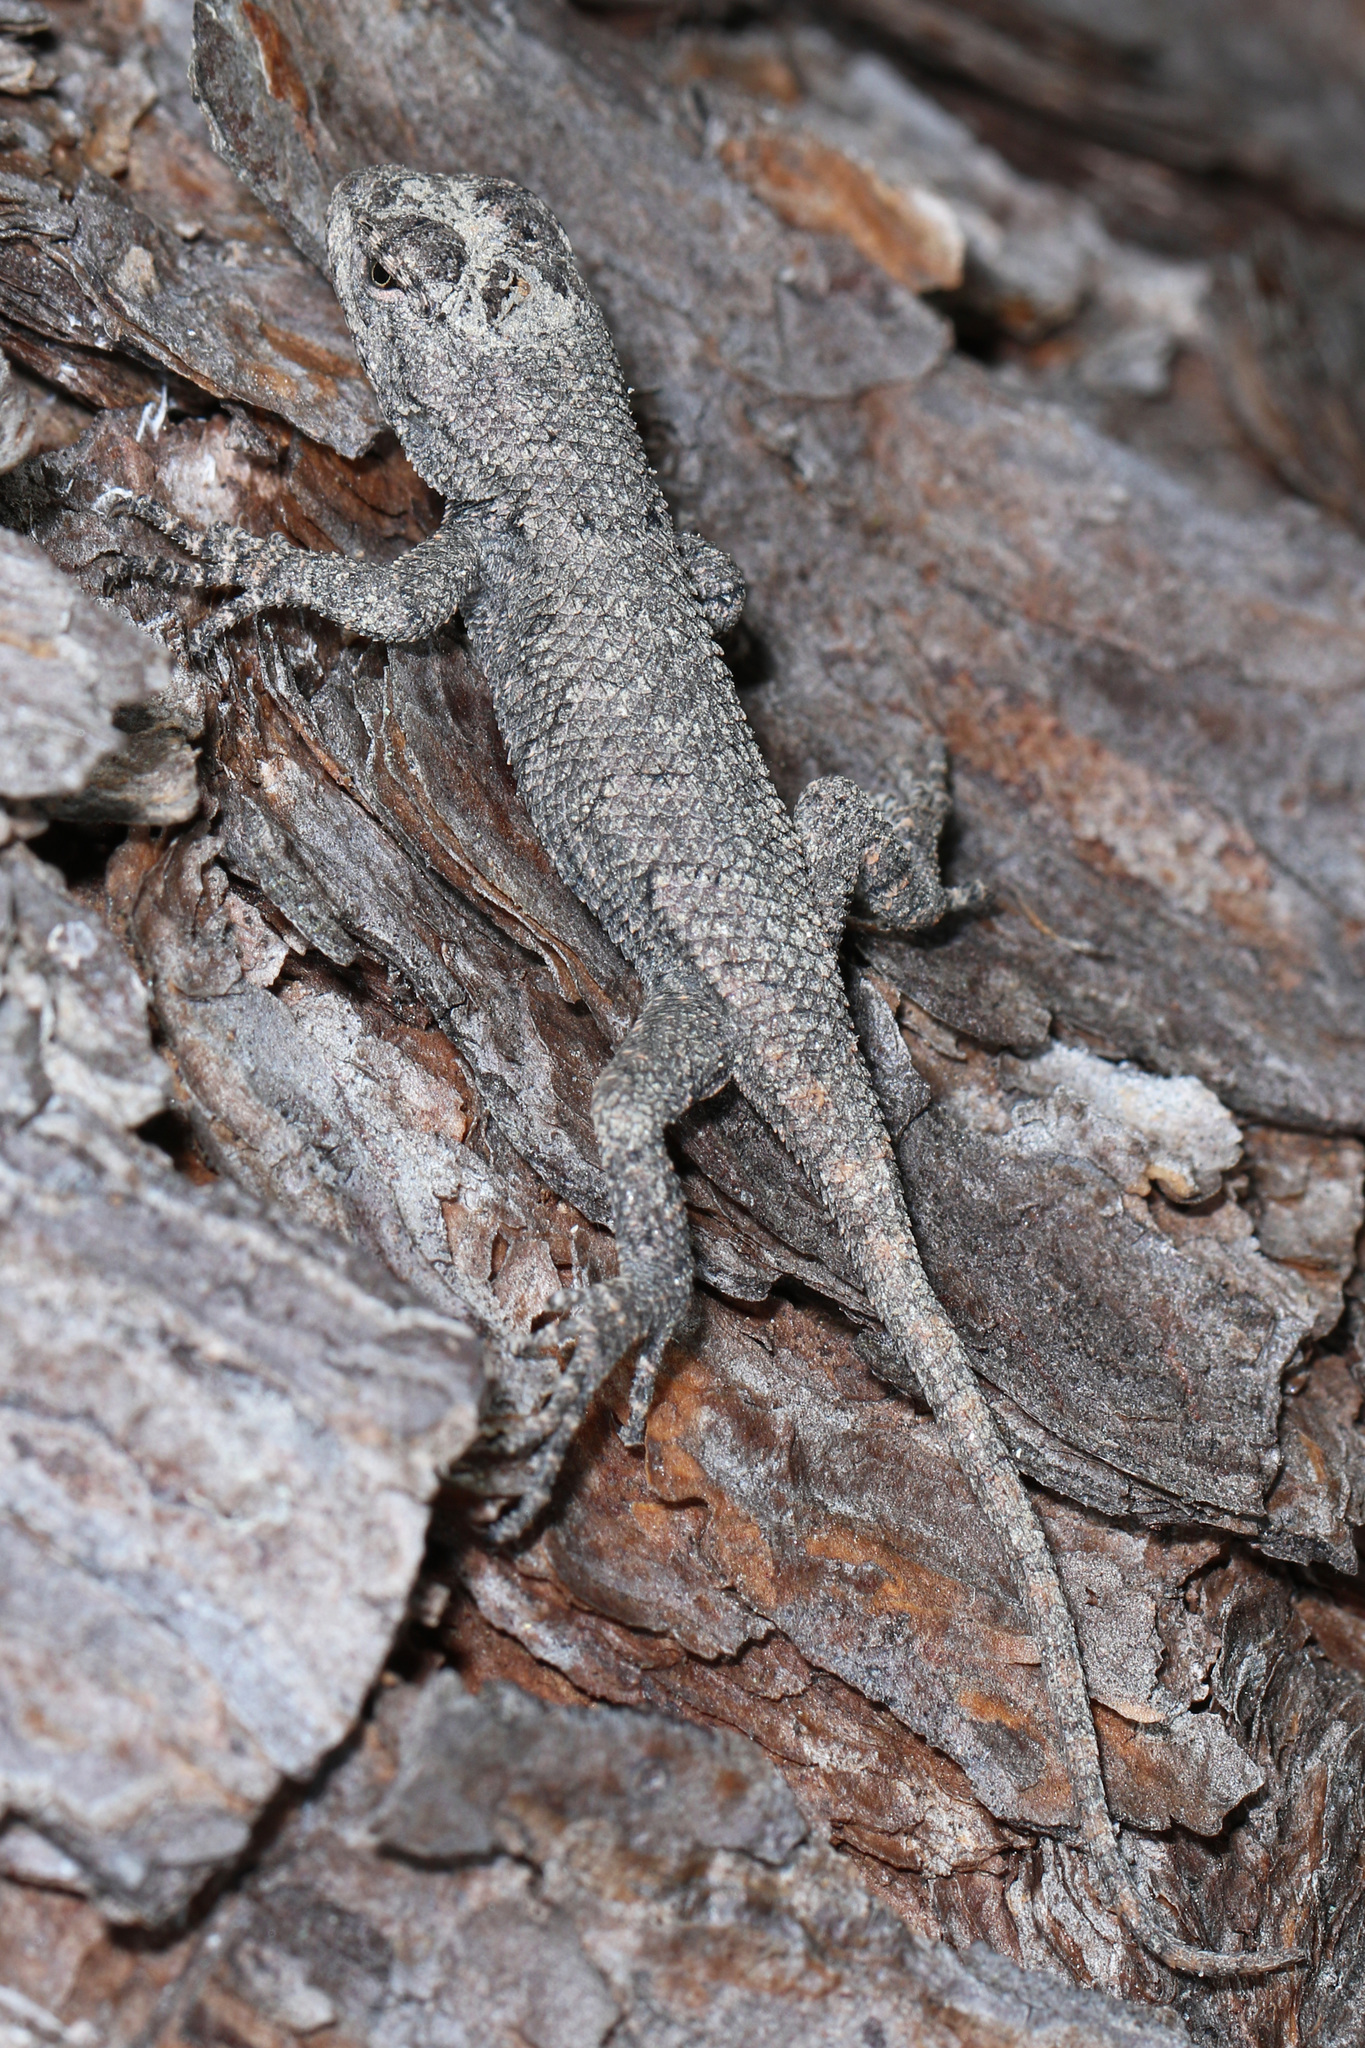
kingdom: Animalia
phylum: Chordata
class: Squamata
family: Phrynosomatidae
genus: Sceloporus
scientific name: Sceloporus undulatus
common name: Eastern fence lizard
